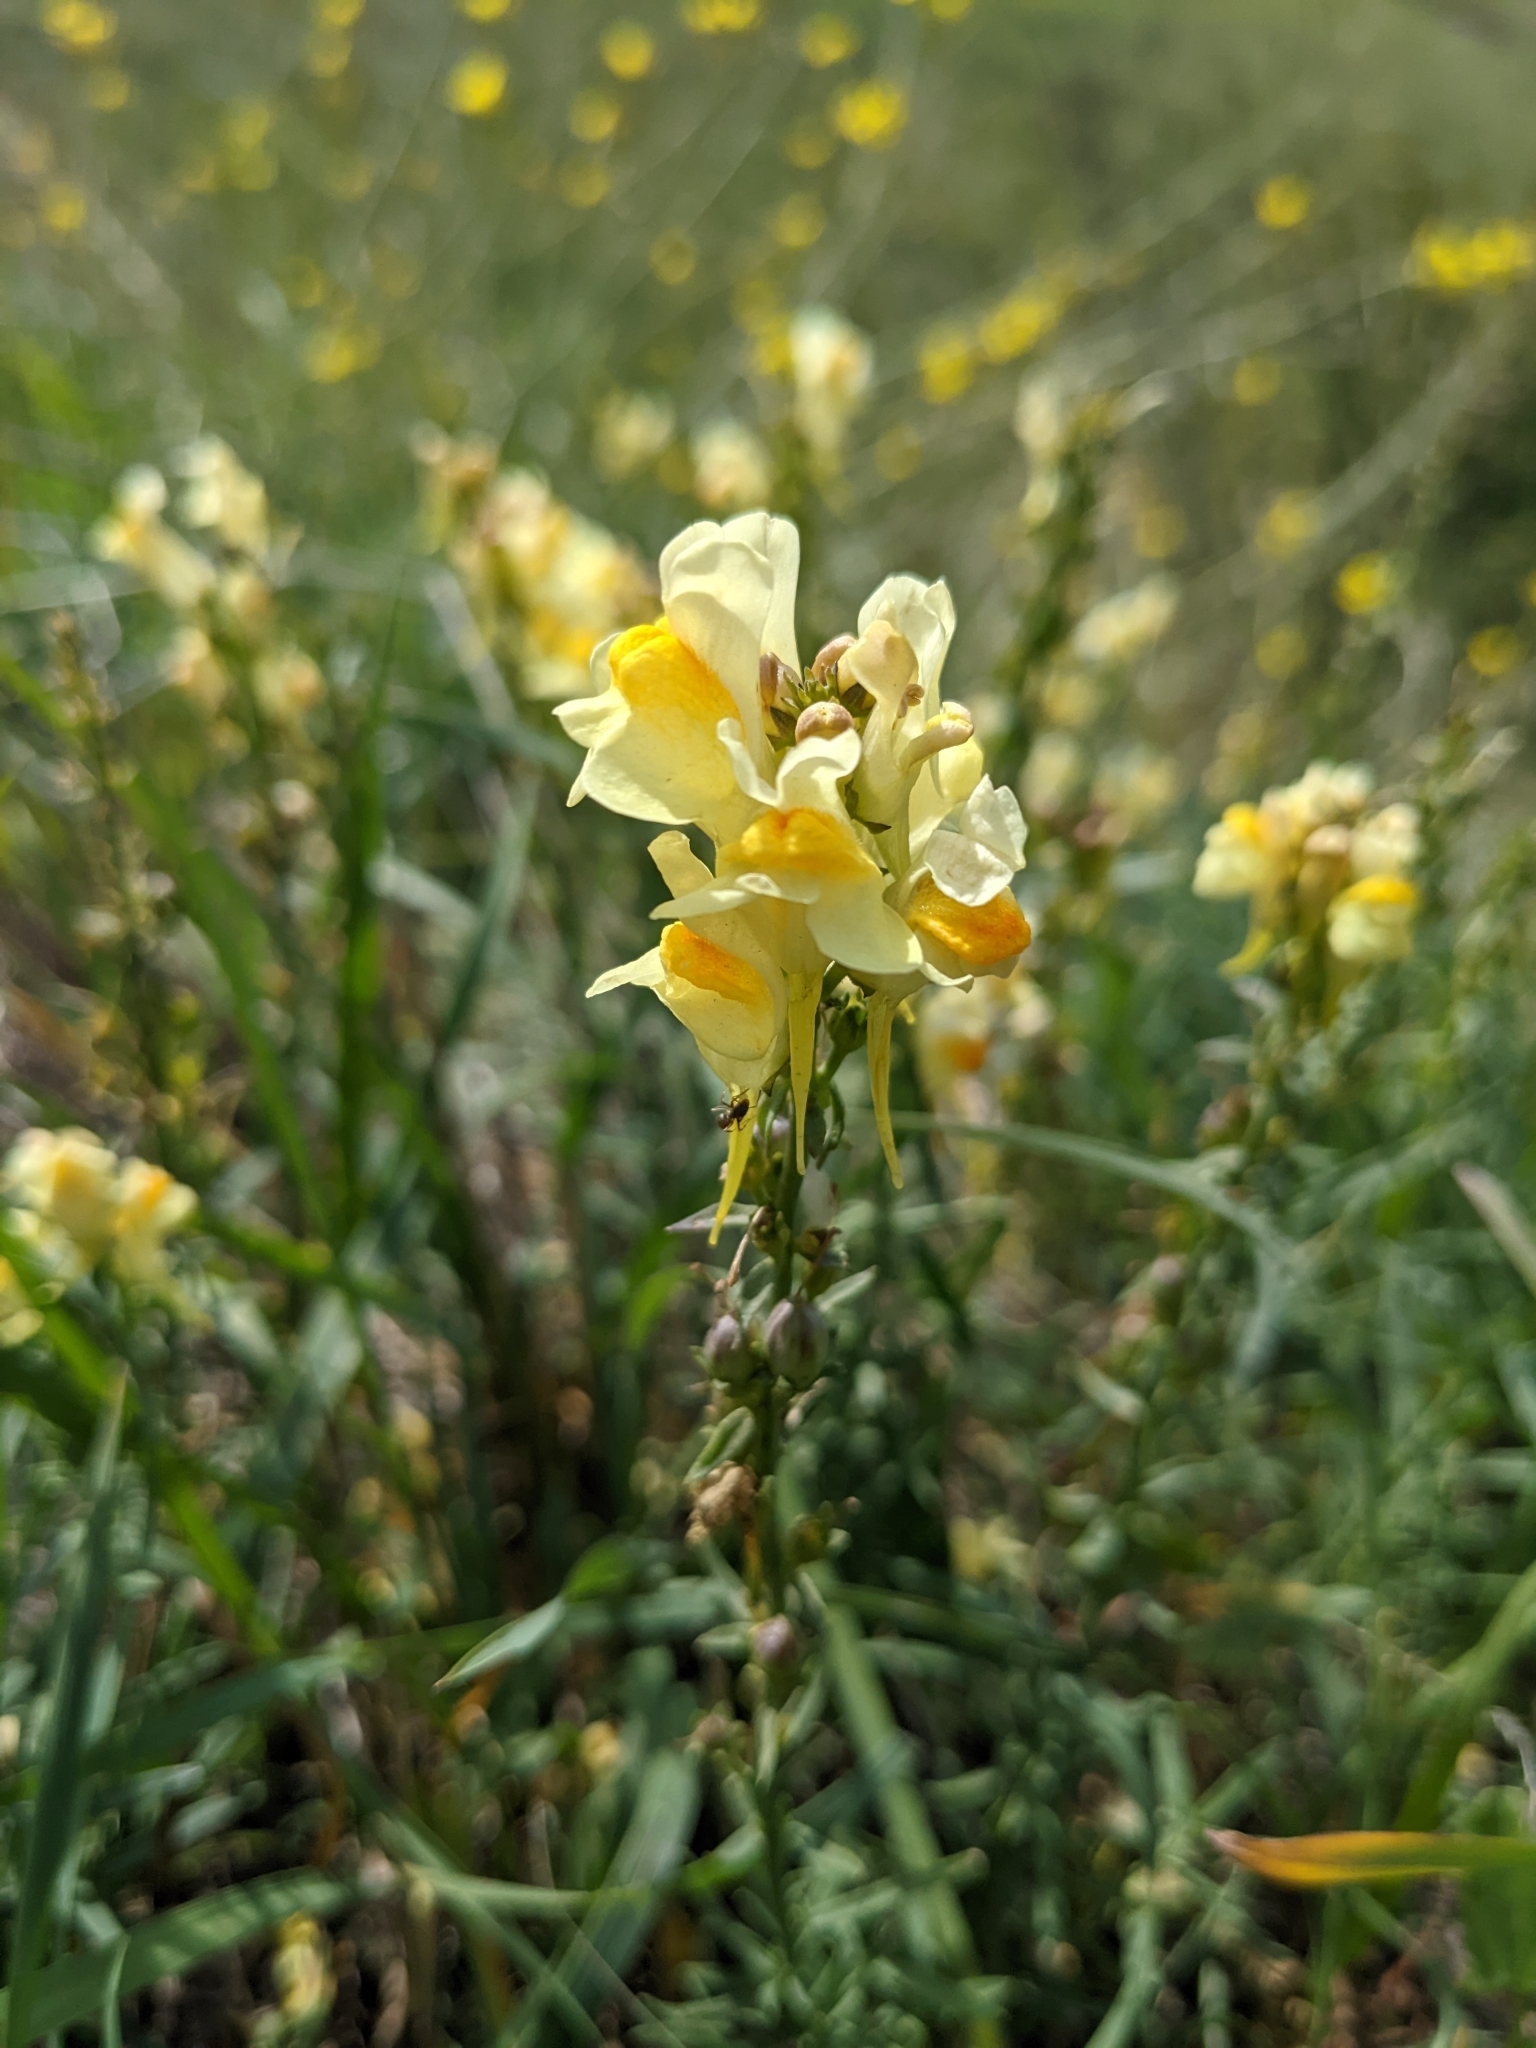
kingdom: Plantae
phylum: Tracheophyta
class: Magnoliopsida
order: Lamiales
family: Plantaginaceae
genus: Linaria
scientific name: Linaria vulgaris
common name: Butter and eggs
